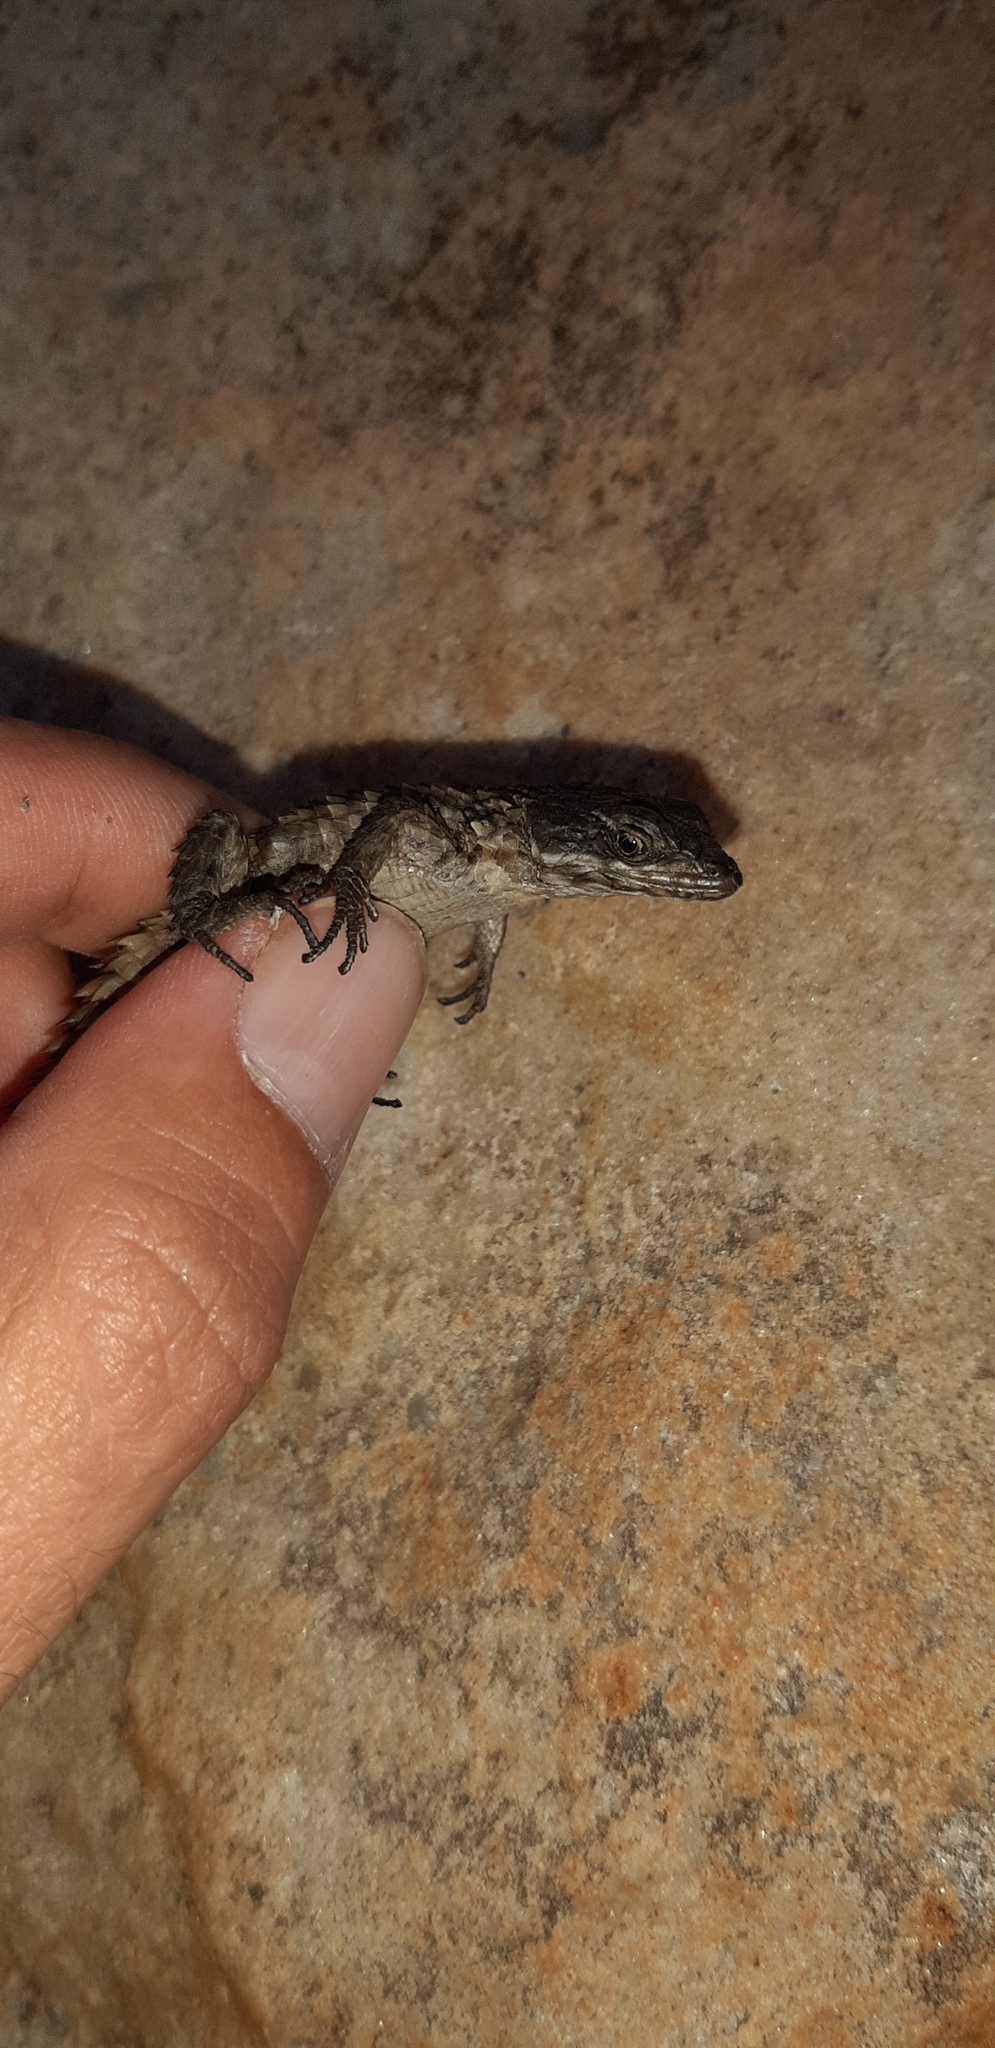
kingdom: Animalia
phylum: Chordata
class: Squamata
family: Cordylidae
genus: Cordylus
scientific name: Cordylus cordylus
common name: Cape girdled lizard
